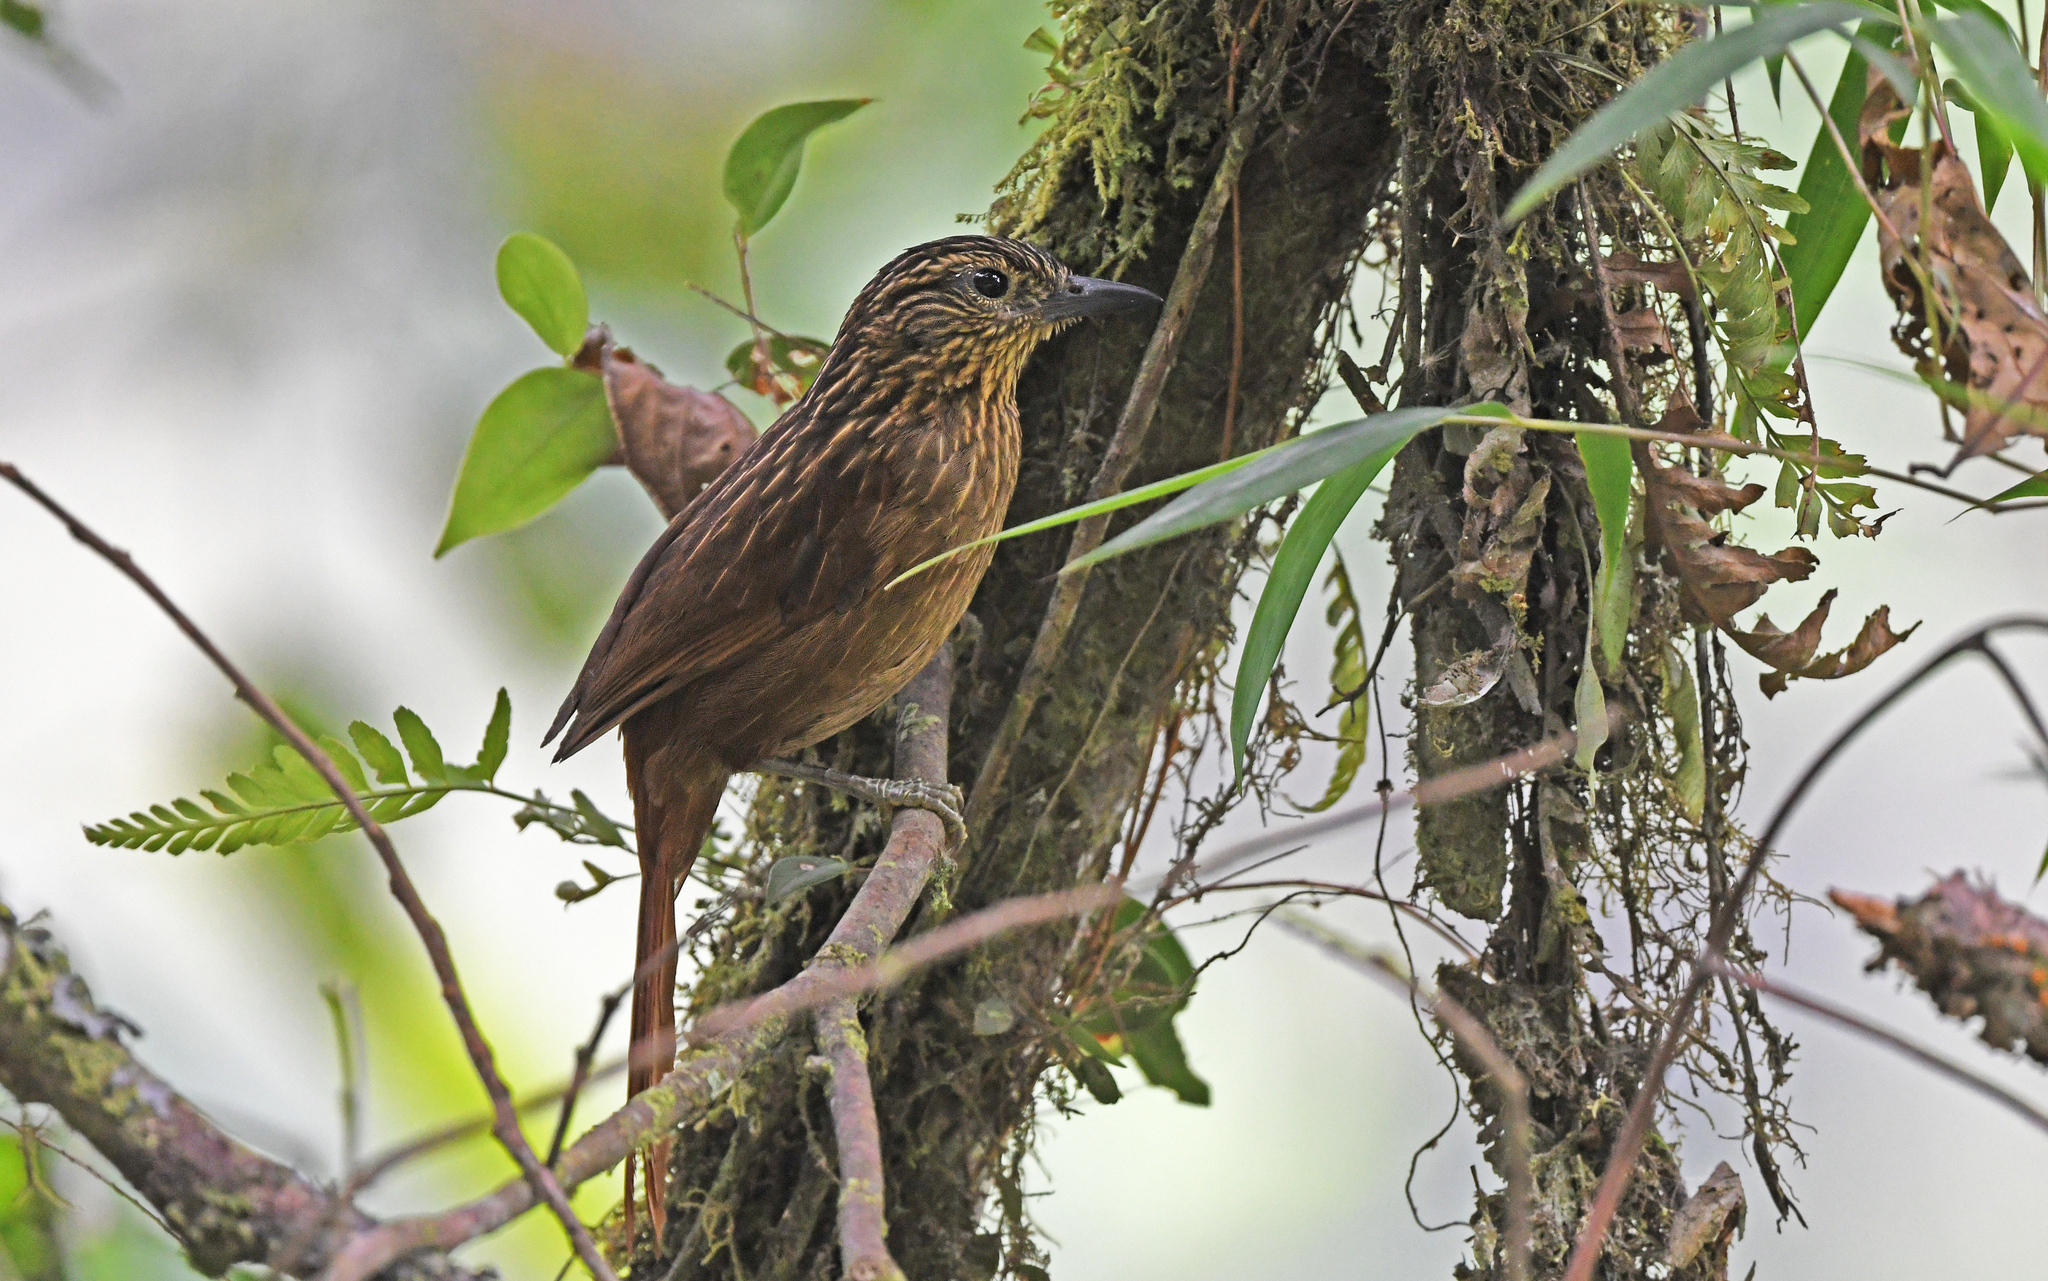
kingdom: Animalia
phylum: Chordata
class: Aves
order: Passeriformes
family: Furnariidae
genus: Thripadectes
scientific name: Thripadectes holostictus
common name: Striped treehunter
